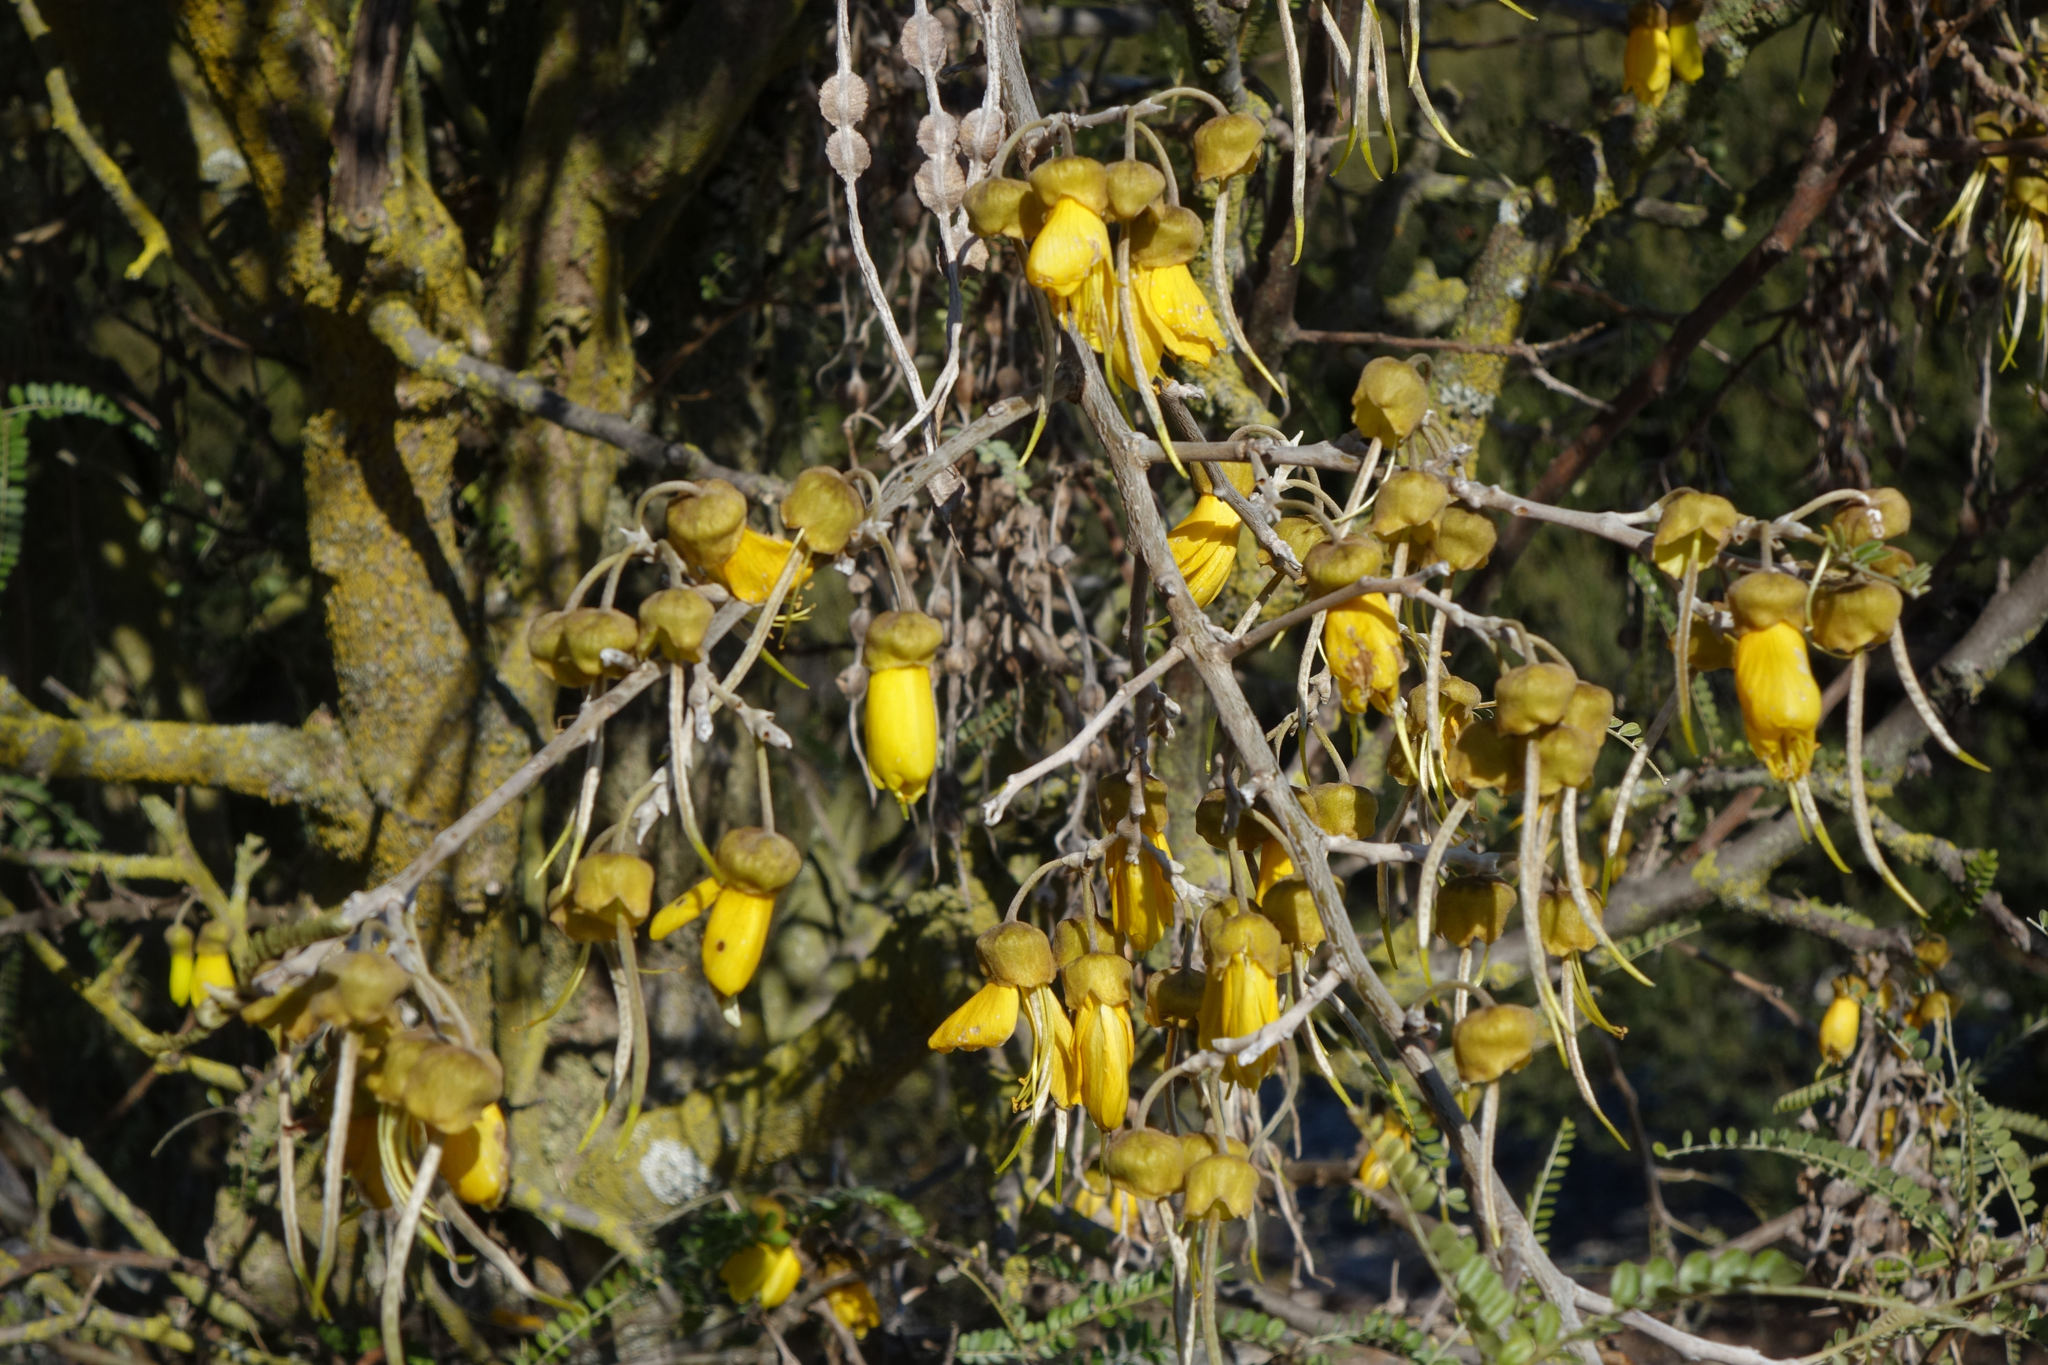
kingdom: Plantae
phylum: Tracheophyta
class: Magnoliopsida
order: Fabales
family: Fabaceae
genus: Sophora
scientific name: Sophora microphylla
